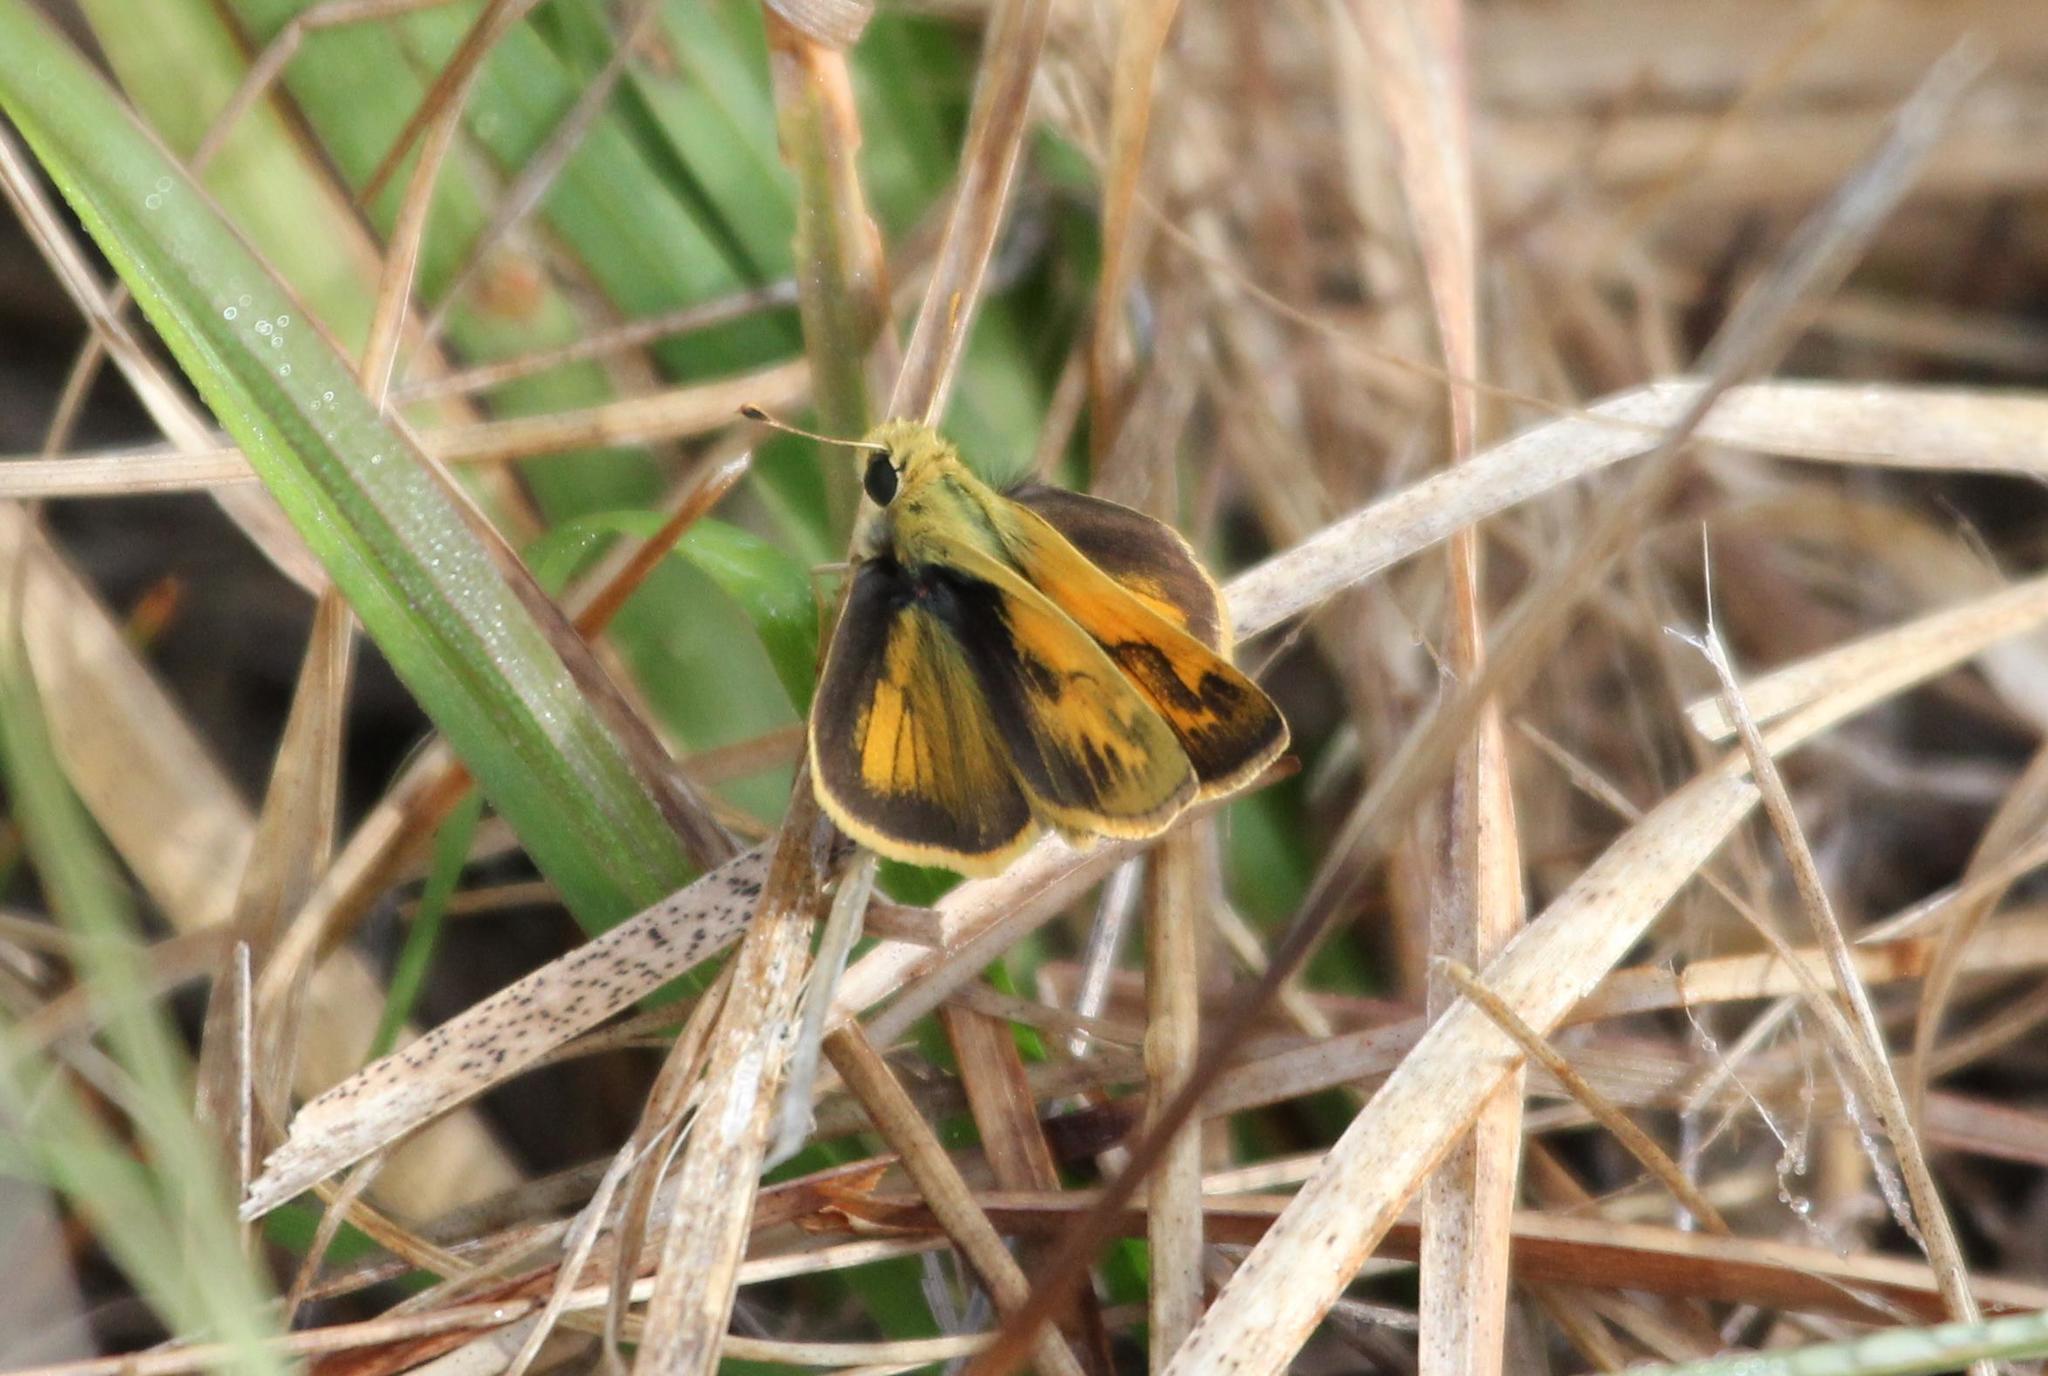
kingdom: Animalia
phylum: Arthropoda
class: Insecta
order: Lepidoptera
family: Hesperiidae
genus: Polites
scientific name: Polites vibex
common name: Whirlabout
